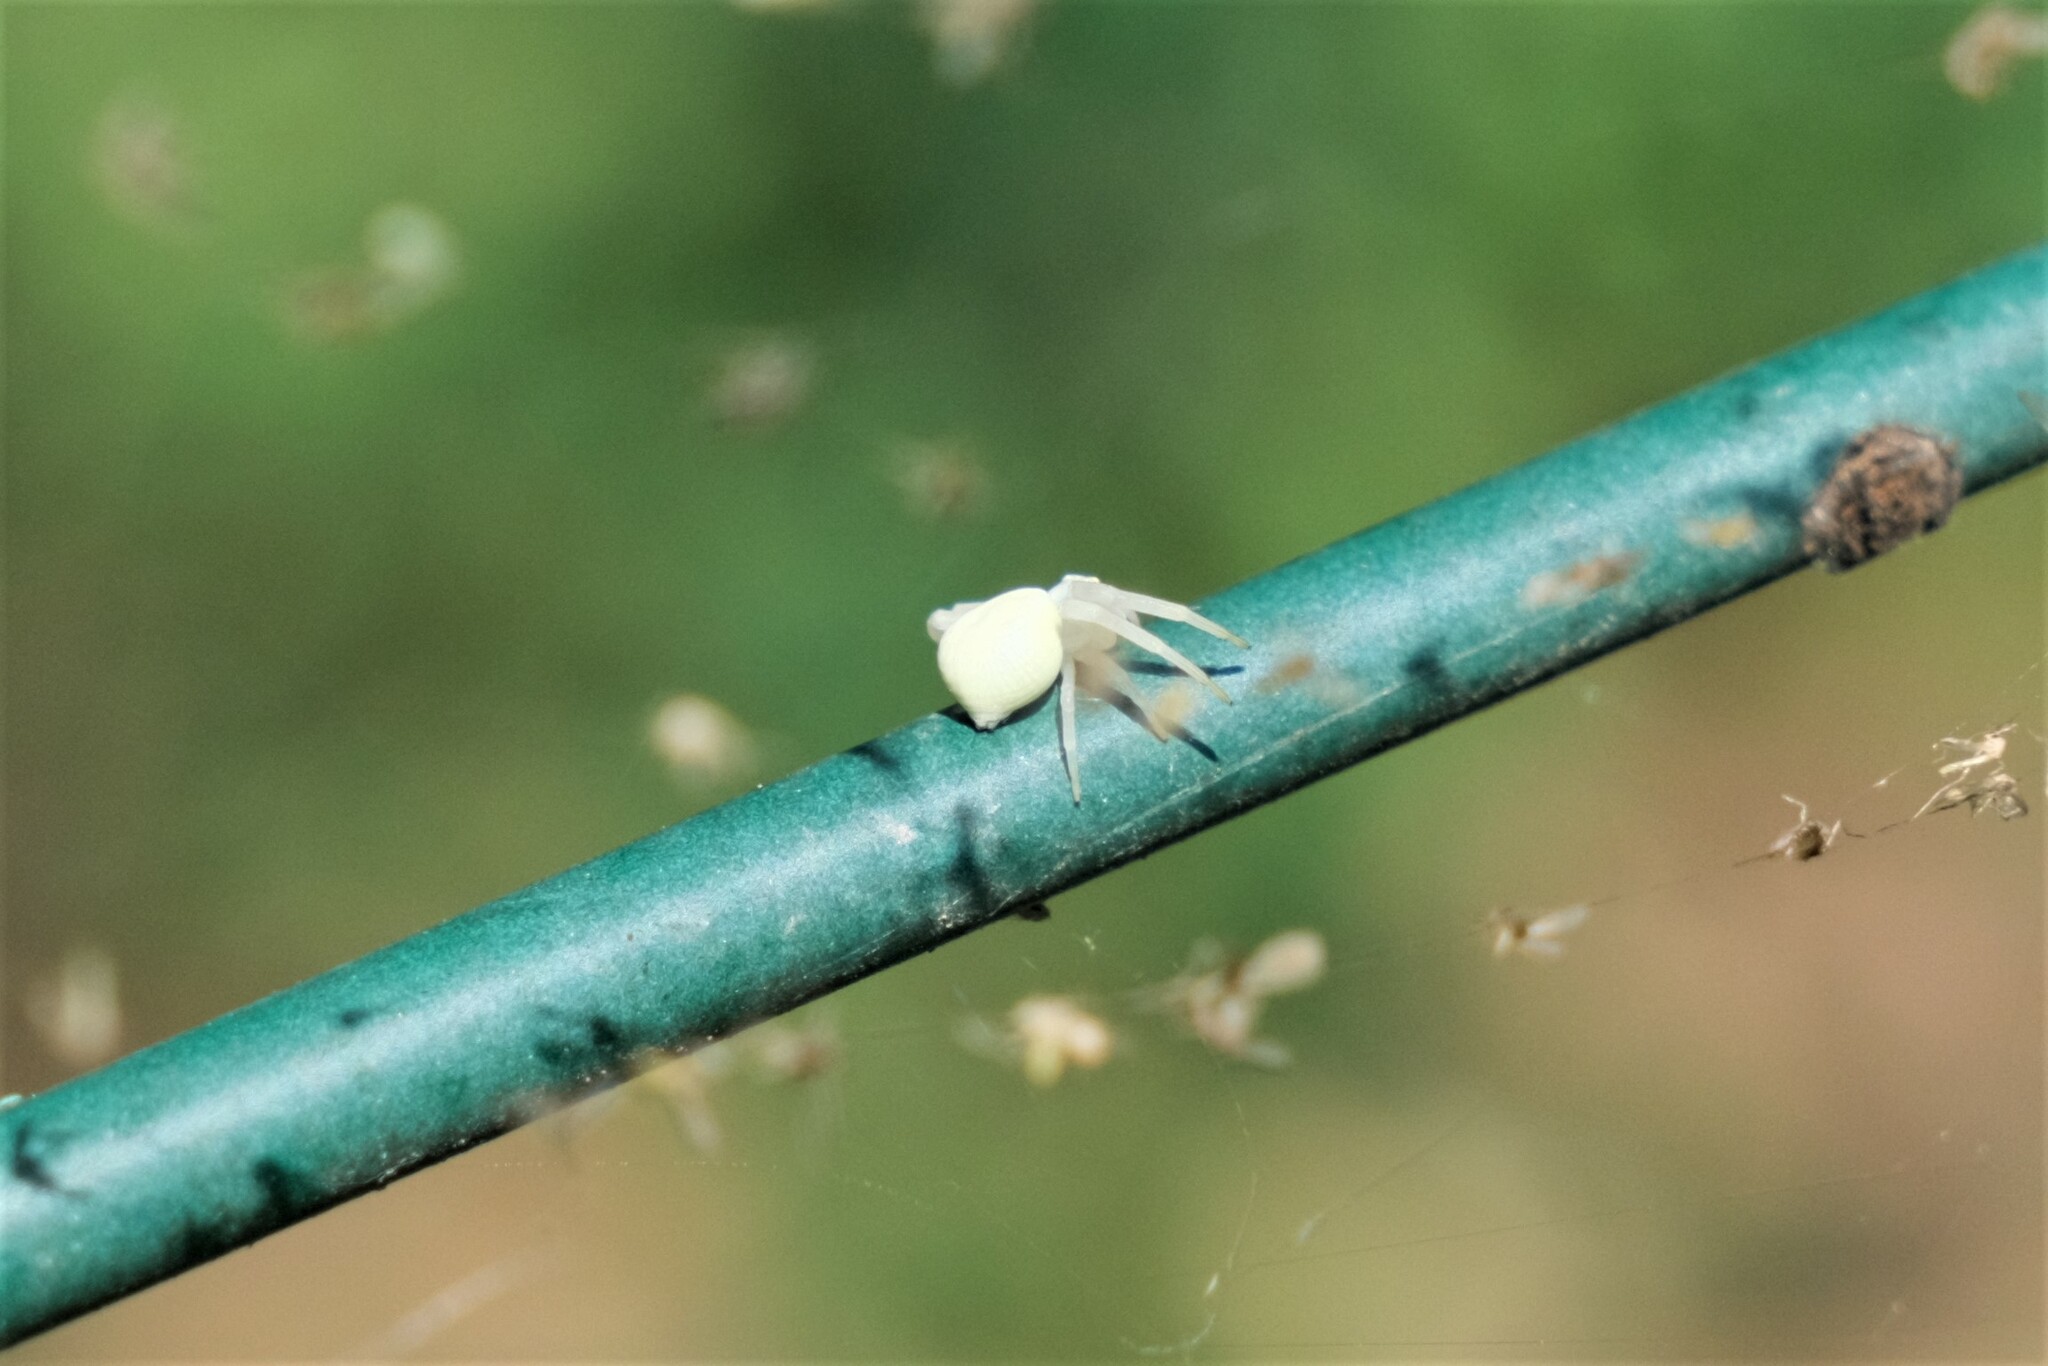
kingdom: Animalia
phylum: Arthropoda
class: Arachnida
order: Araneae
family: Thomisidae
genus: Misumena
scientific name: Misumena vatia
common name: Goldenrod crab spider
